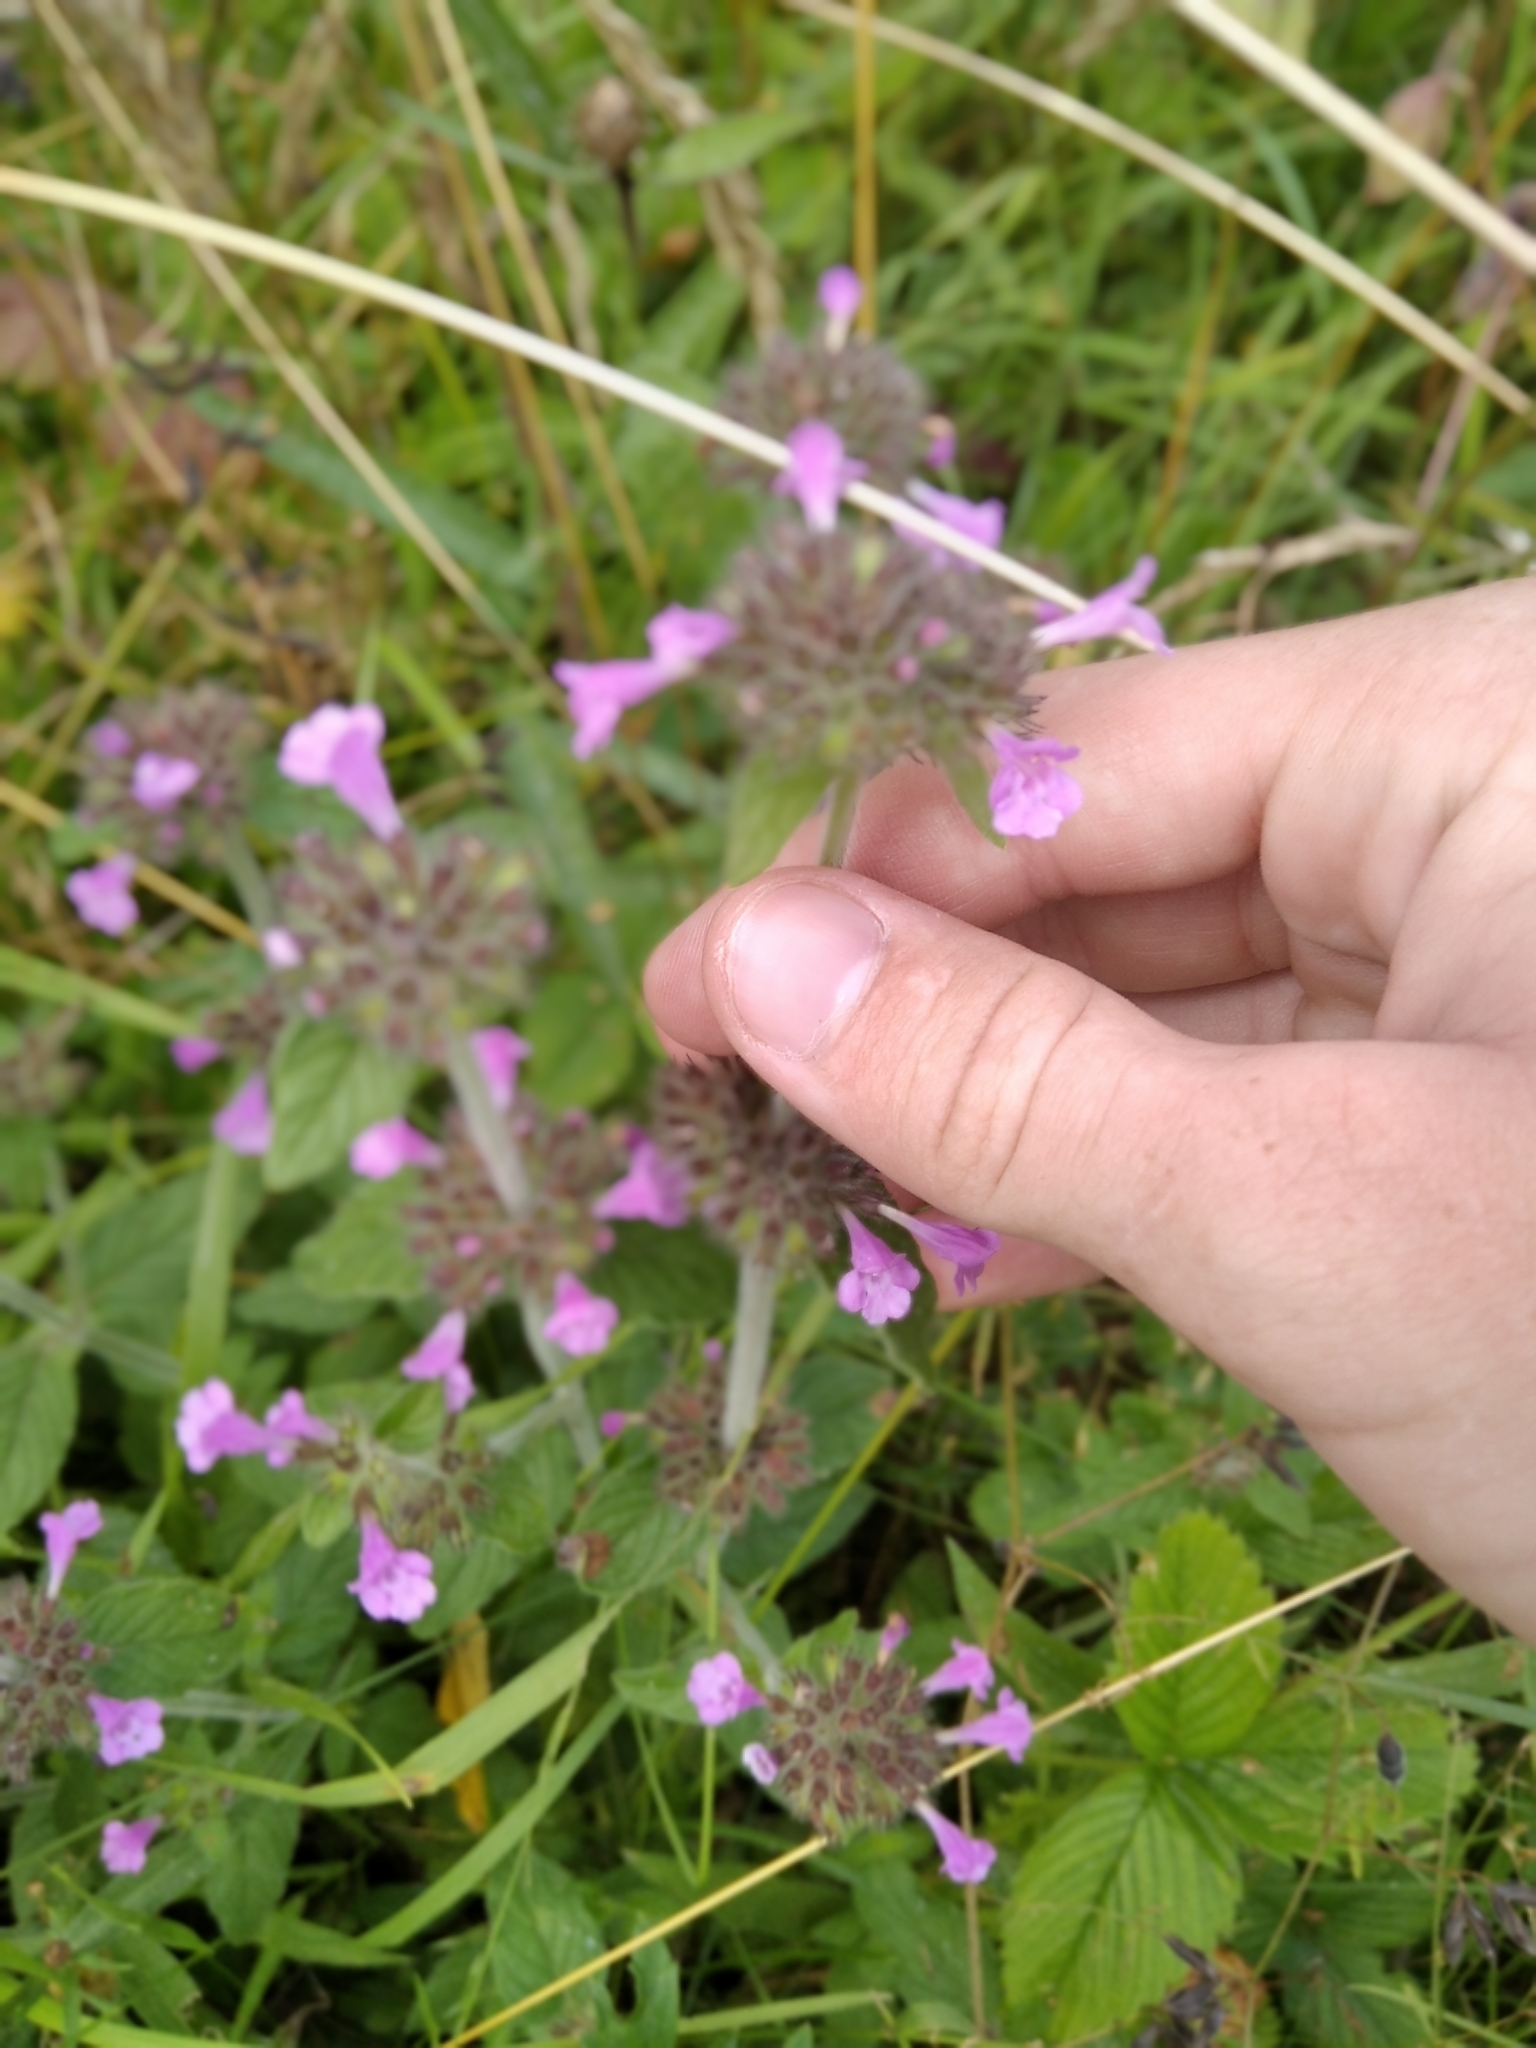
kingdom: Plantae
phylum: Tracheophyta
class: Magnoliopsida
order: Lamiales
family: Lamiaceae
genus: Clinopodium
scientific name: Clinopodium vulgare
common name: Wild basil
